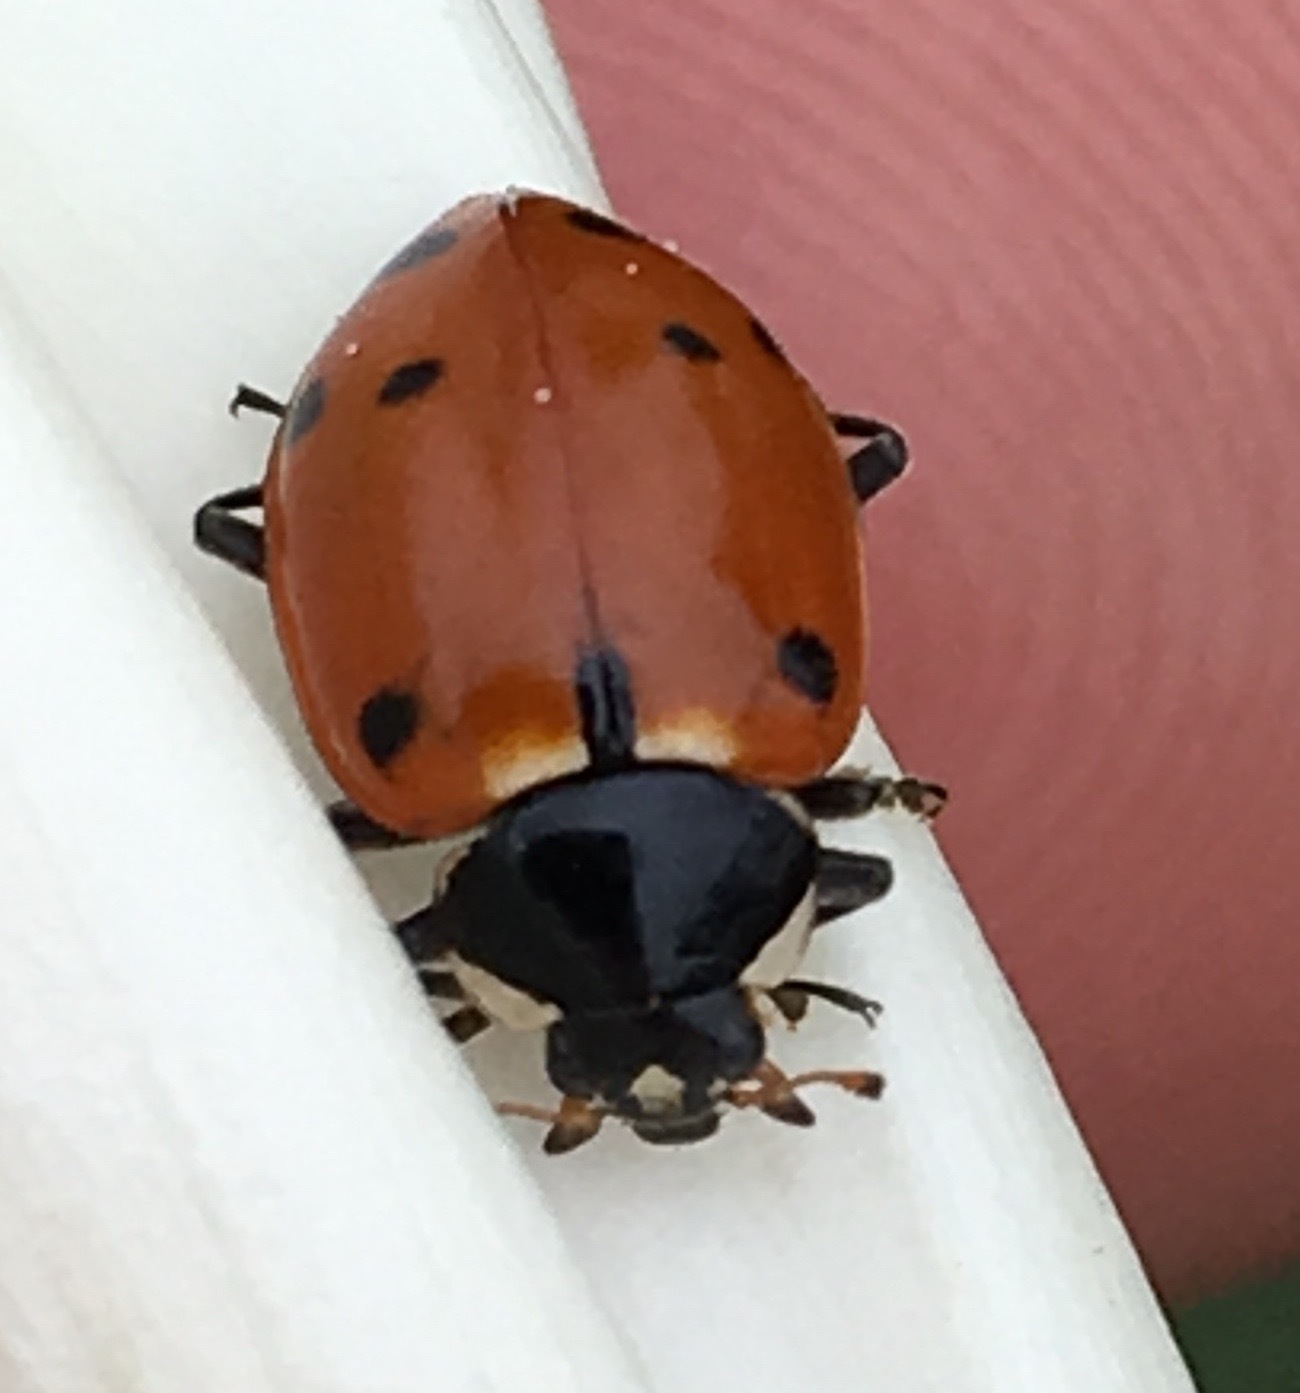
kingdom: Animalia
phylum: Arthropoda
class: Insecta
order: Coleoptera
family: Coccinellidae
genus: Hippodamia
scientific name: Hippodamia quinquesignata
